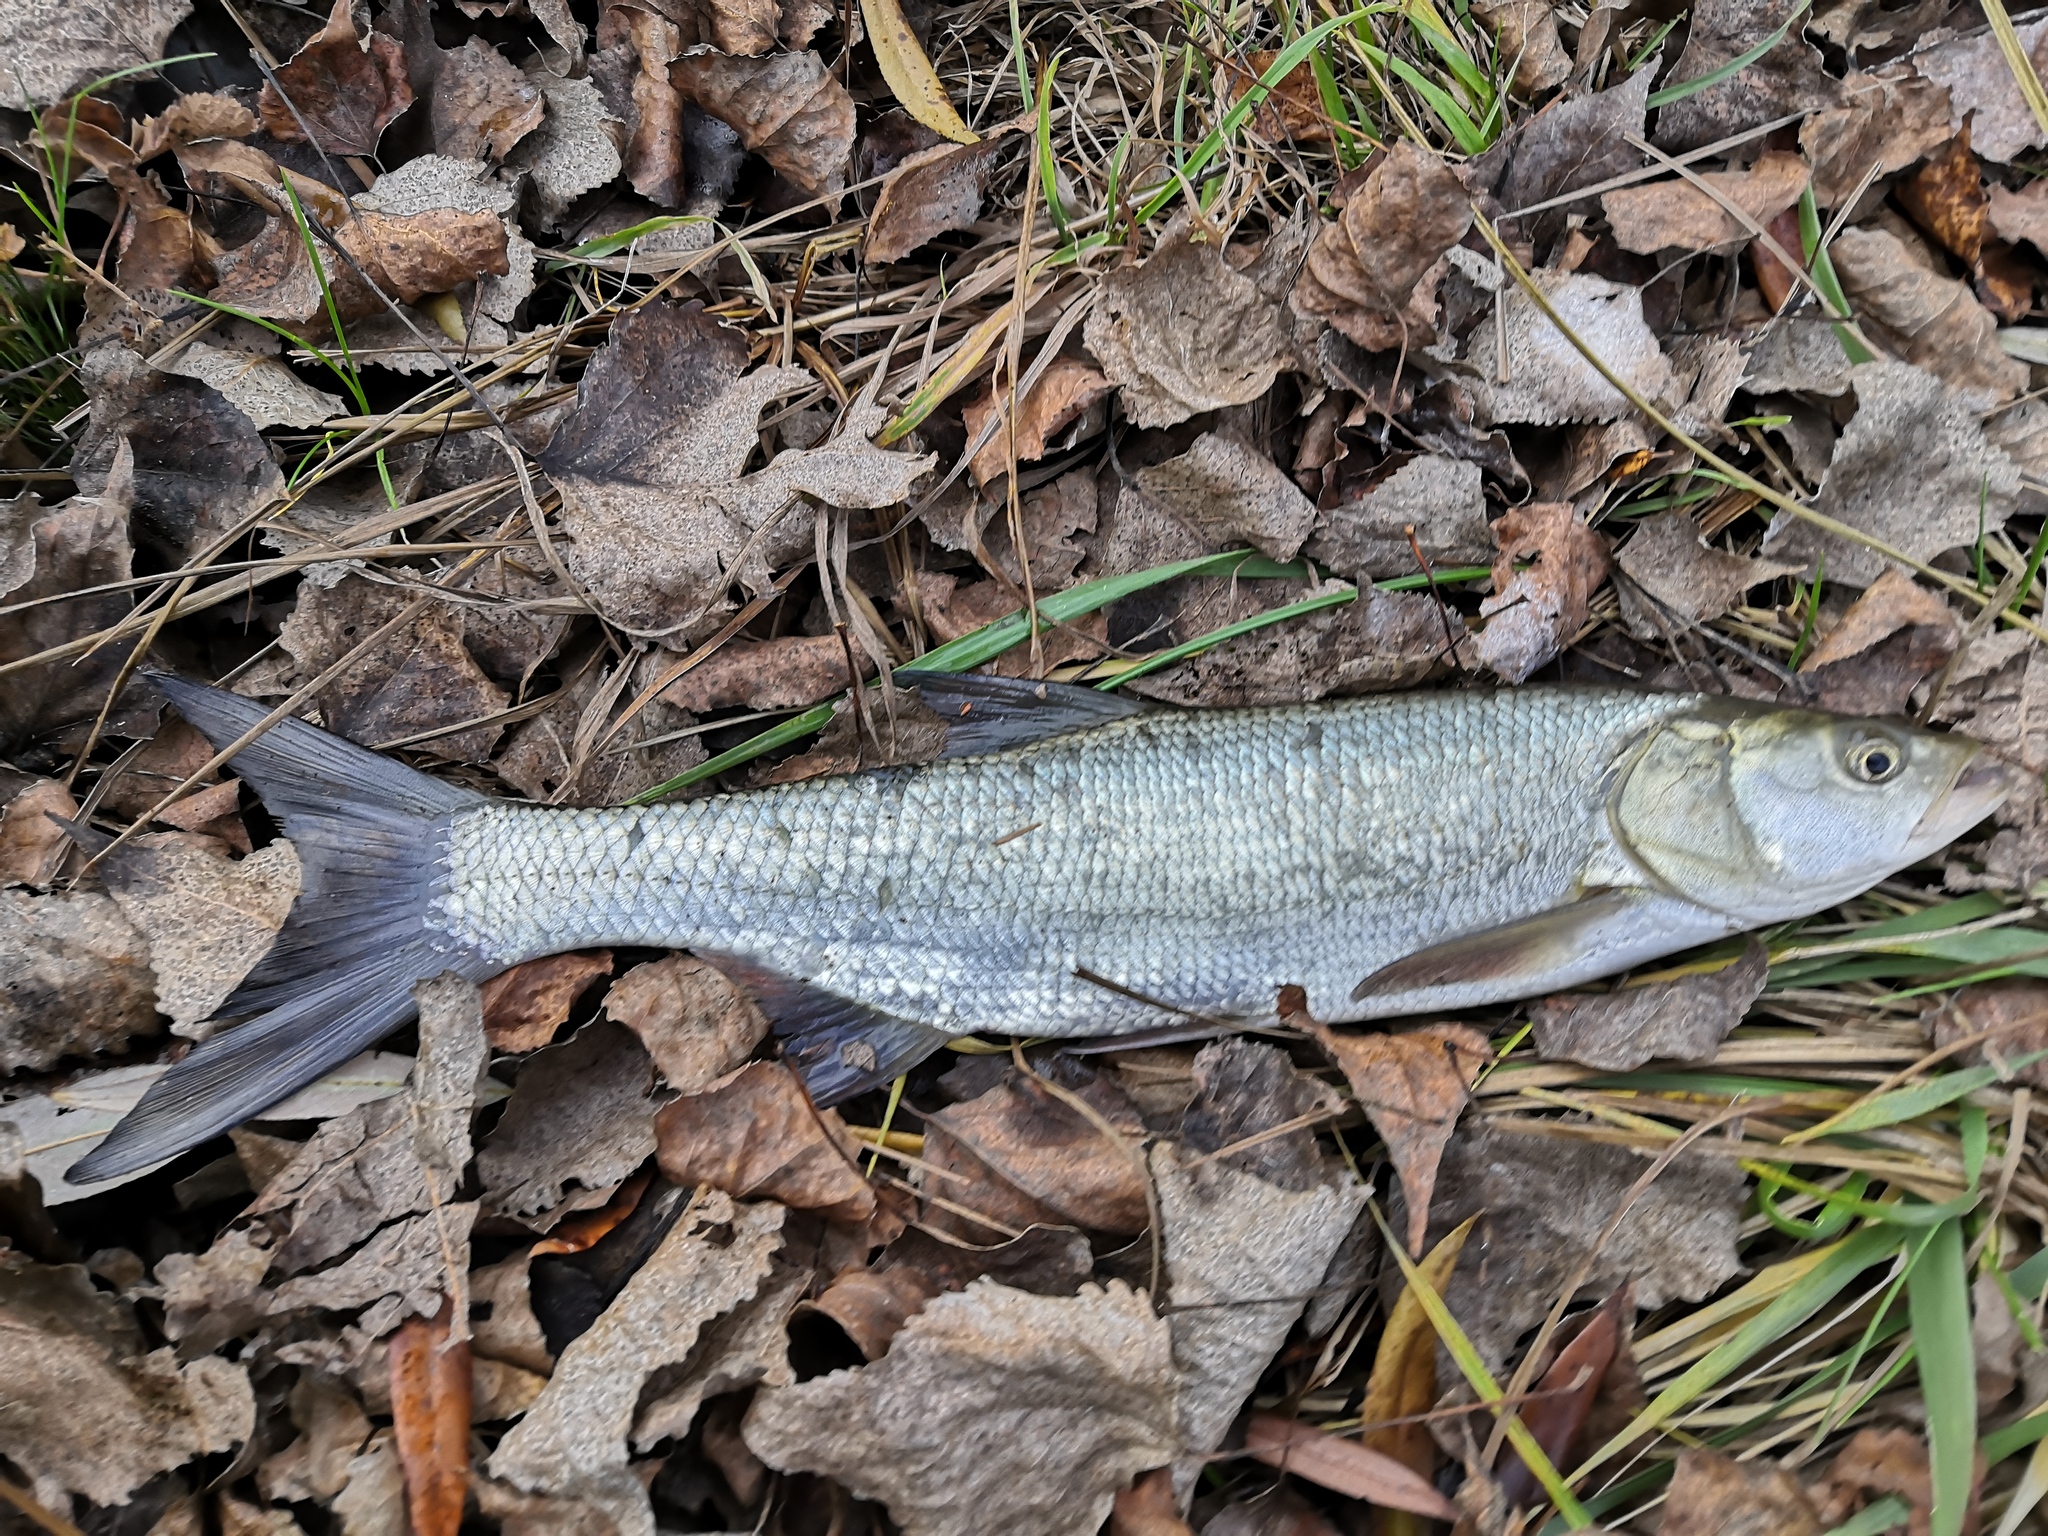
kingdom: Animalia
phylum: Chordata
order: Cypriniformes
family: Cyprinidae
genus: Leuciscus
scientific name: Leuciscus aspius
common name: Asp
